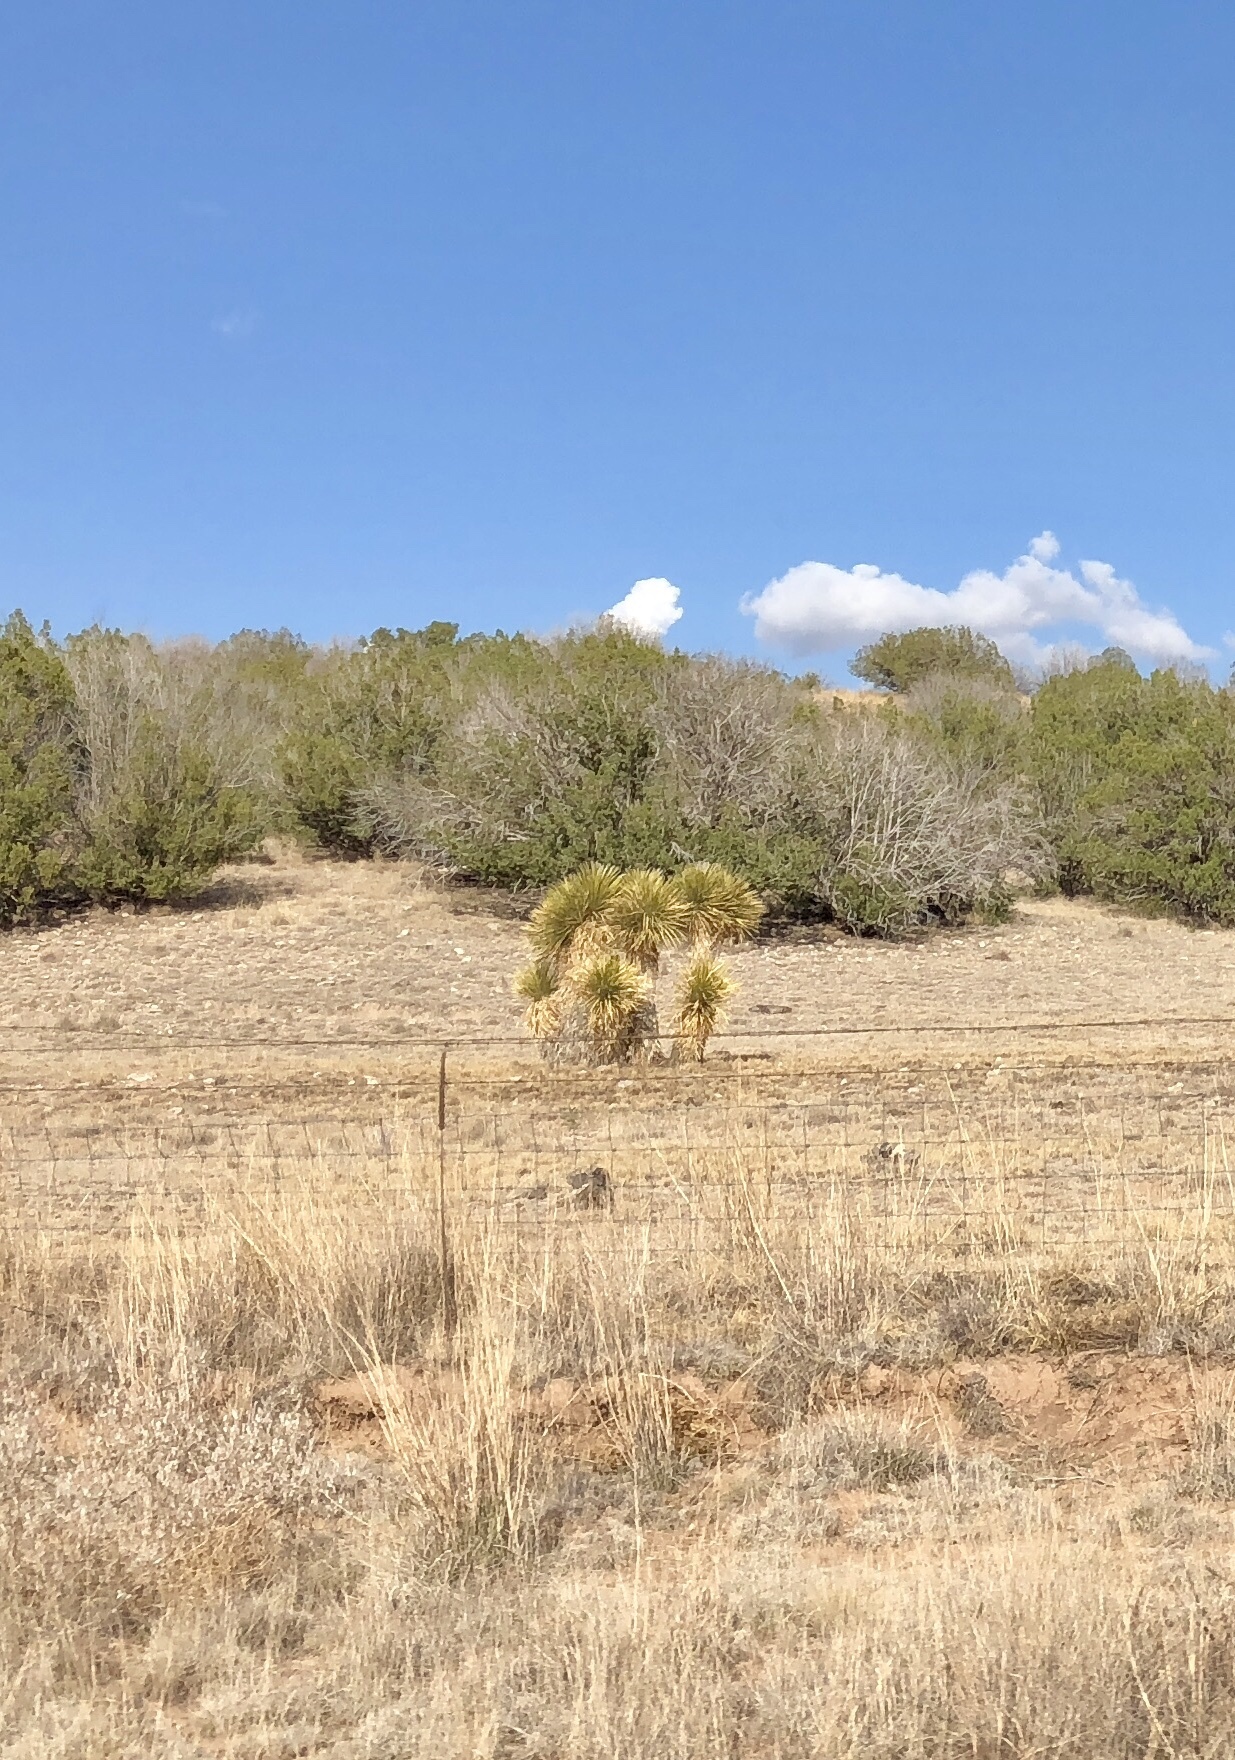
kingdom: Plantae
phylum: Tracheophyta
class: Liliopsida
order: Asparagales
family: Asparagaceae
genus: Yucca
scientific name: Yucca elata
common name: Palmella
